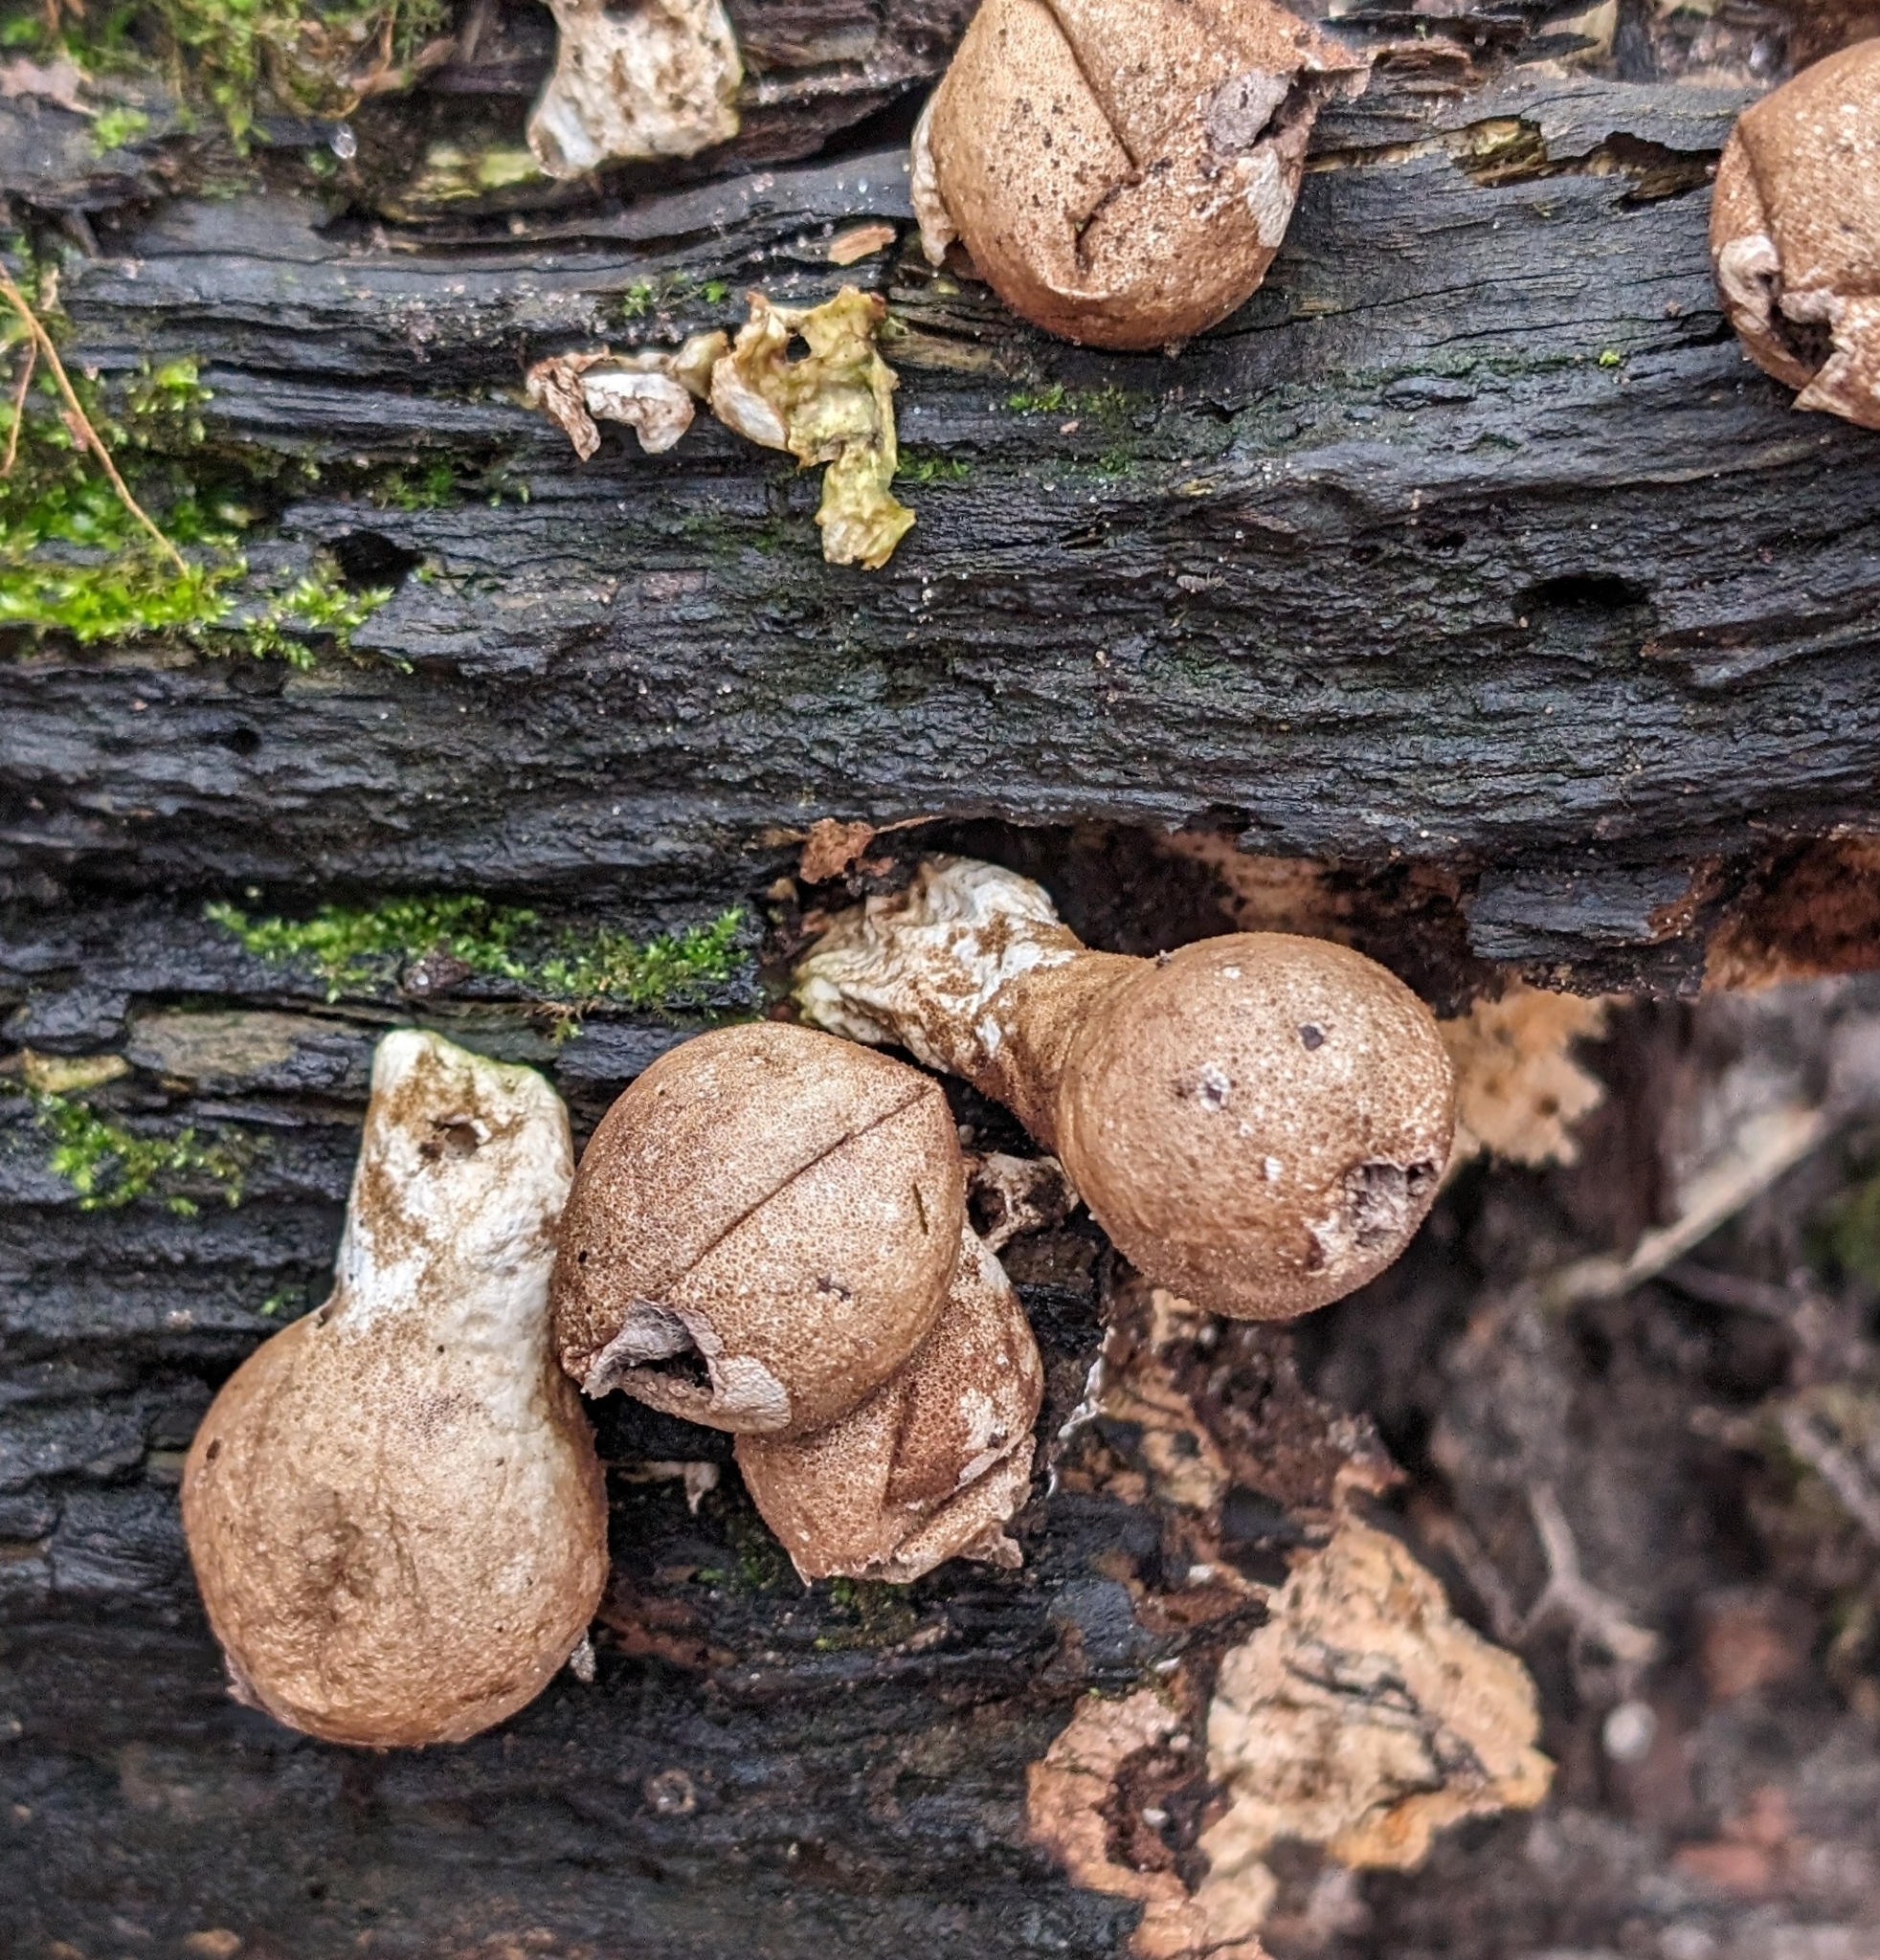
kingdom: Fungi
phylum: Basidiomycota
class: Agaricomycetes
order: Agaricales
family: Lycoperdaceae
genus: Apioperdon
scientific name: Apioperdon pyriforme
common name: Pear-shaped puffball
